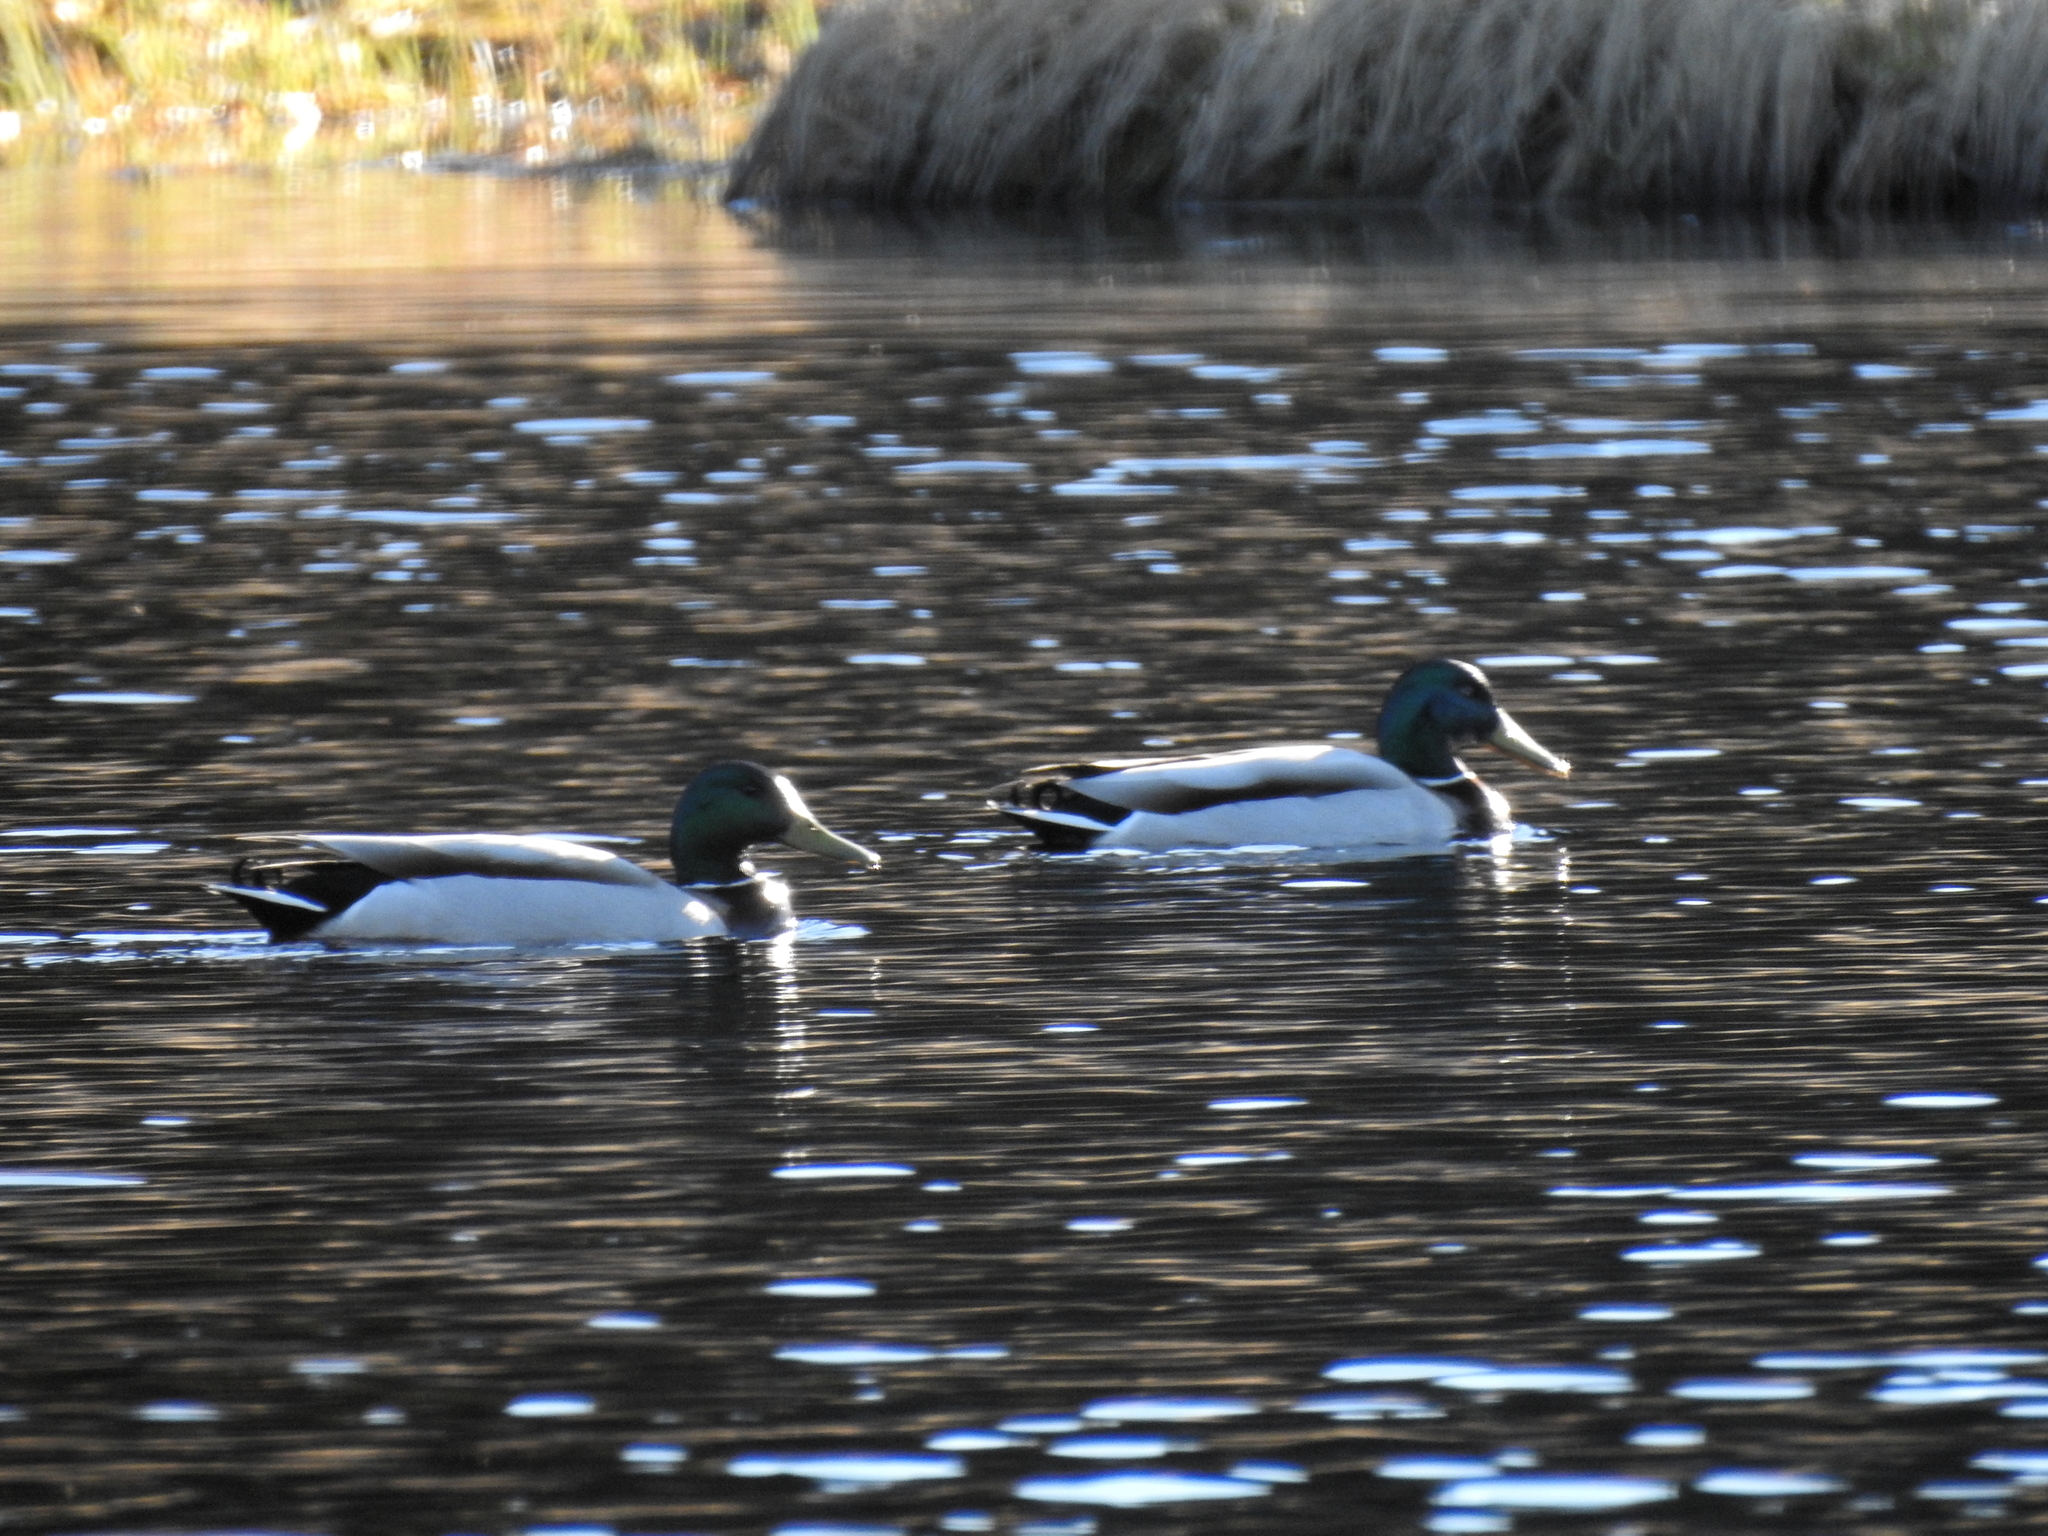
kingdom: Animalia
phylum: Chordata
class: Aves
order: Anseriformes
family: Anatidae
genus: Anas
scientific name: Anas platyrhynchos
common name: Mallard
